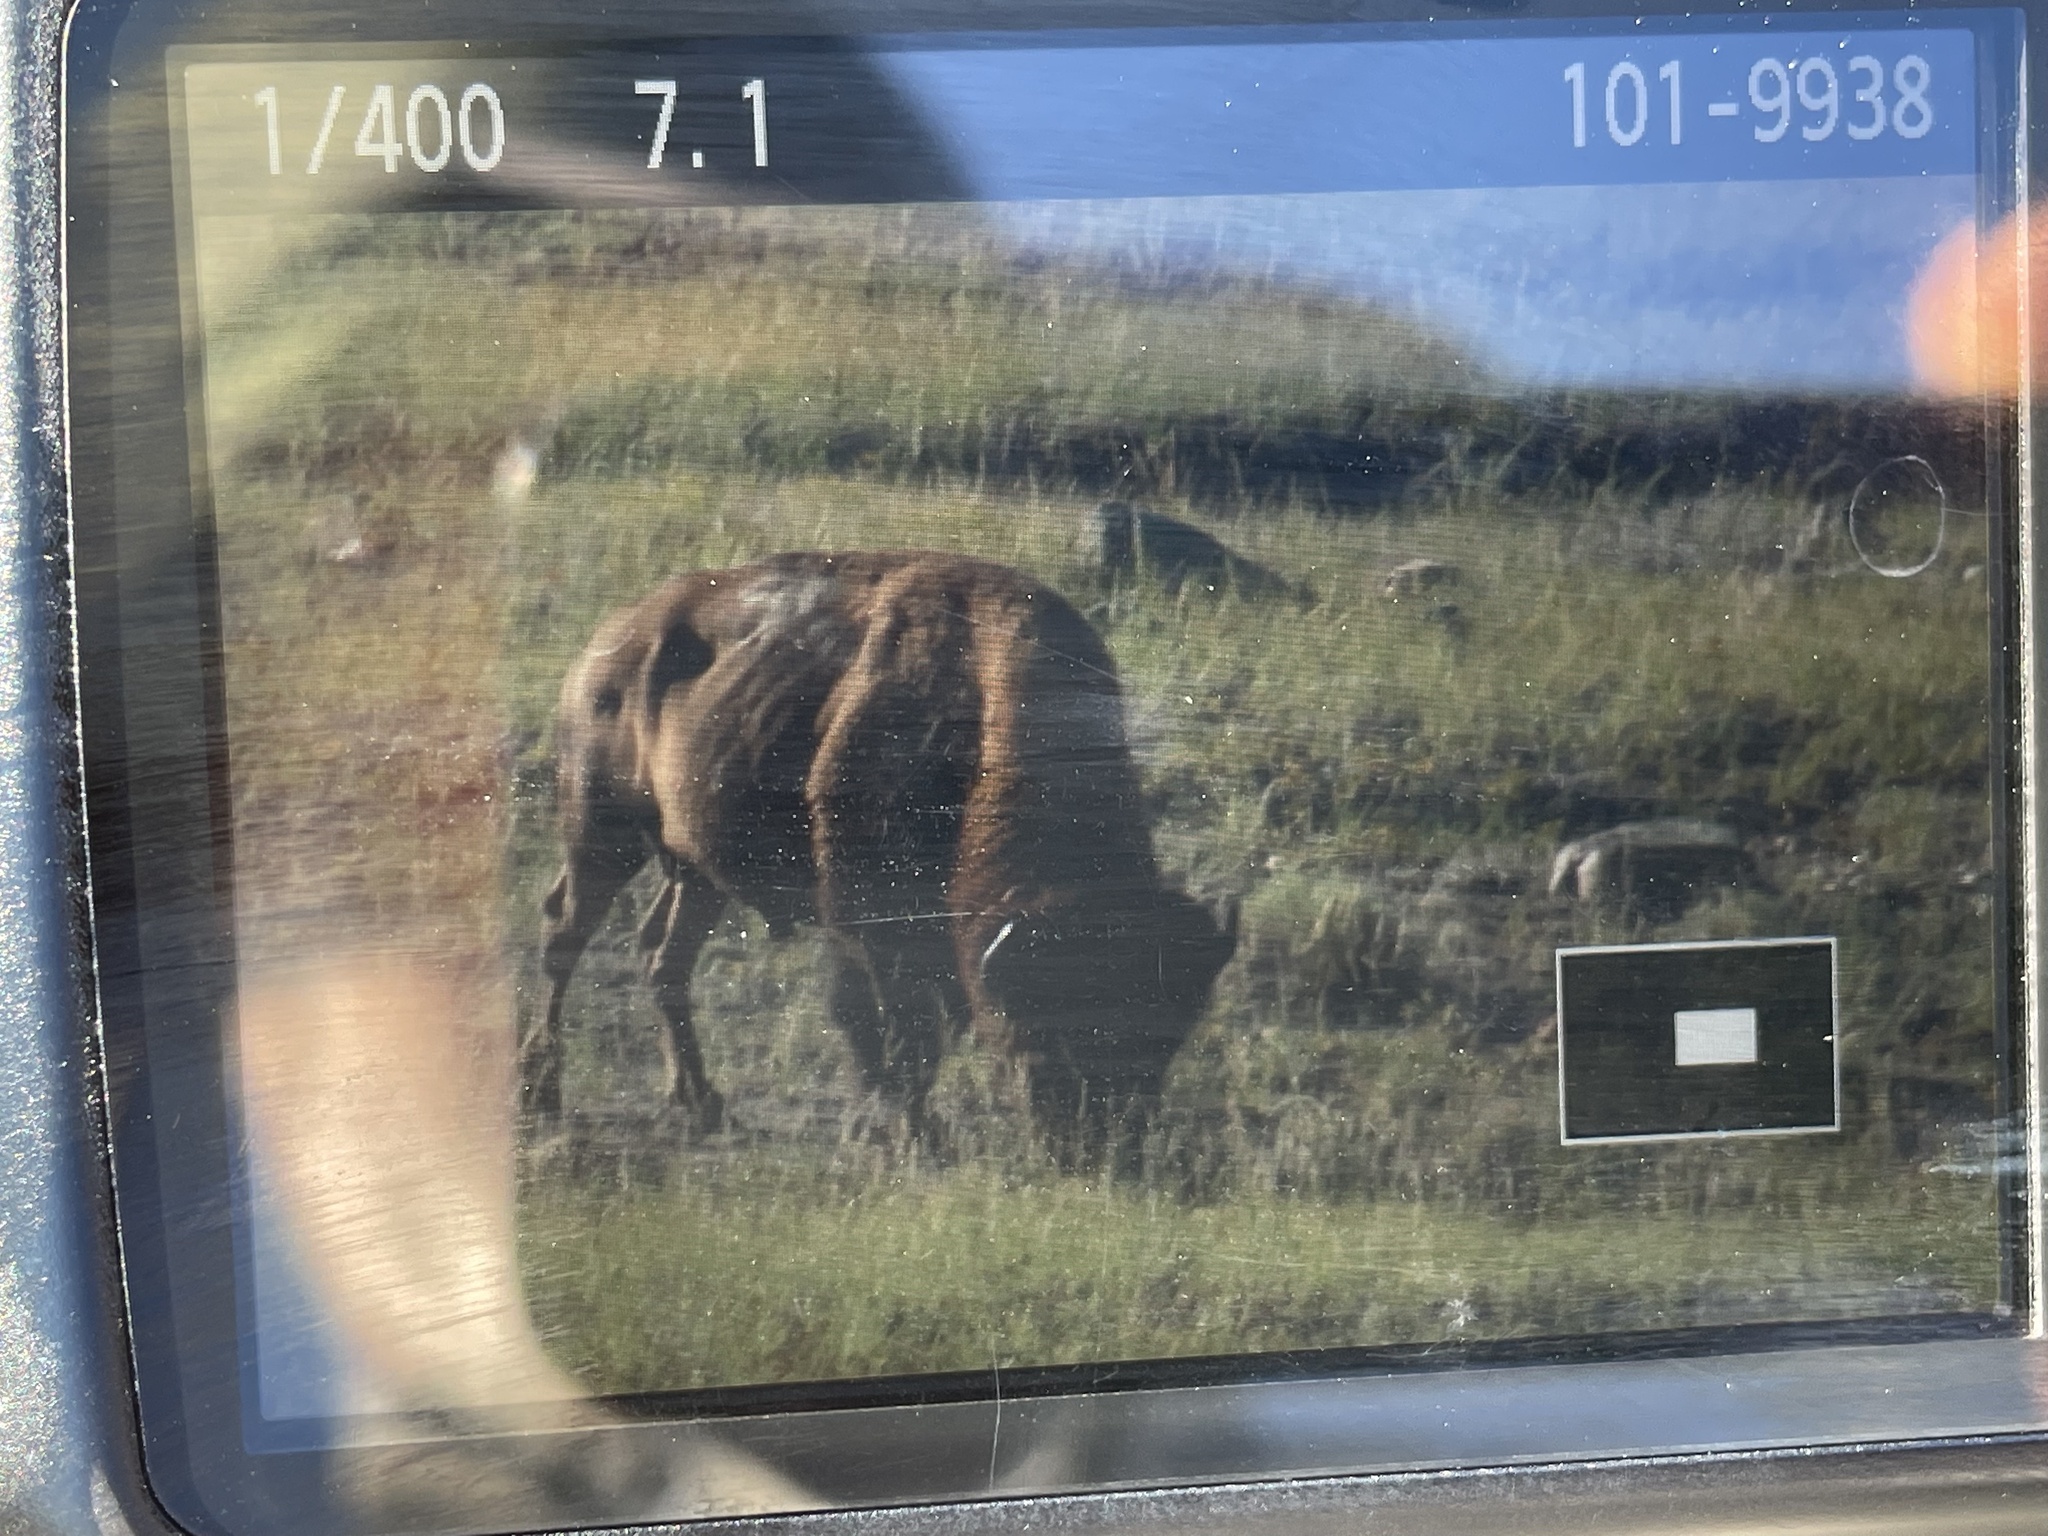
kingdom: Animalia
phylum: Chordata
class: Mammalia
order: Artiodactyla
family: Bovidae
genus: Bison
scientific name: Bison bison
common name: American bison
